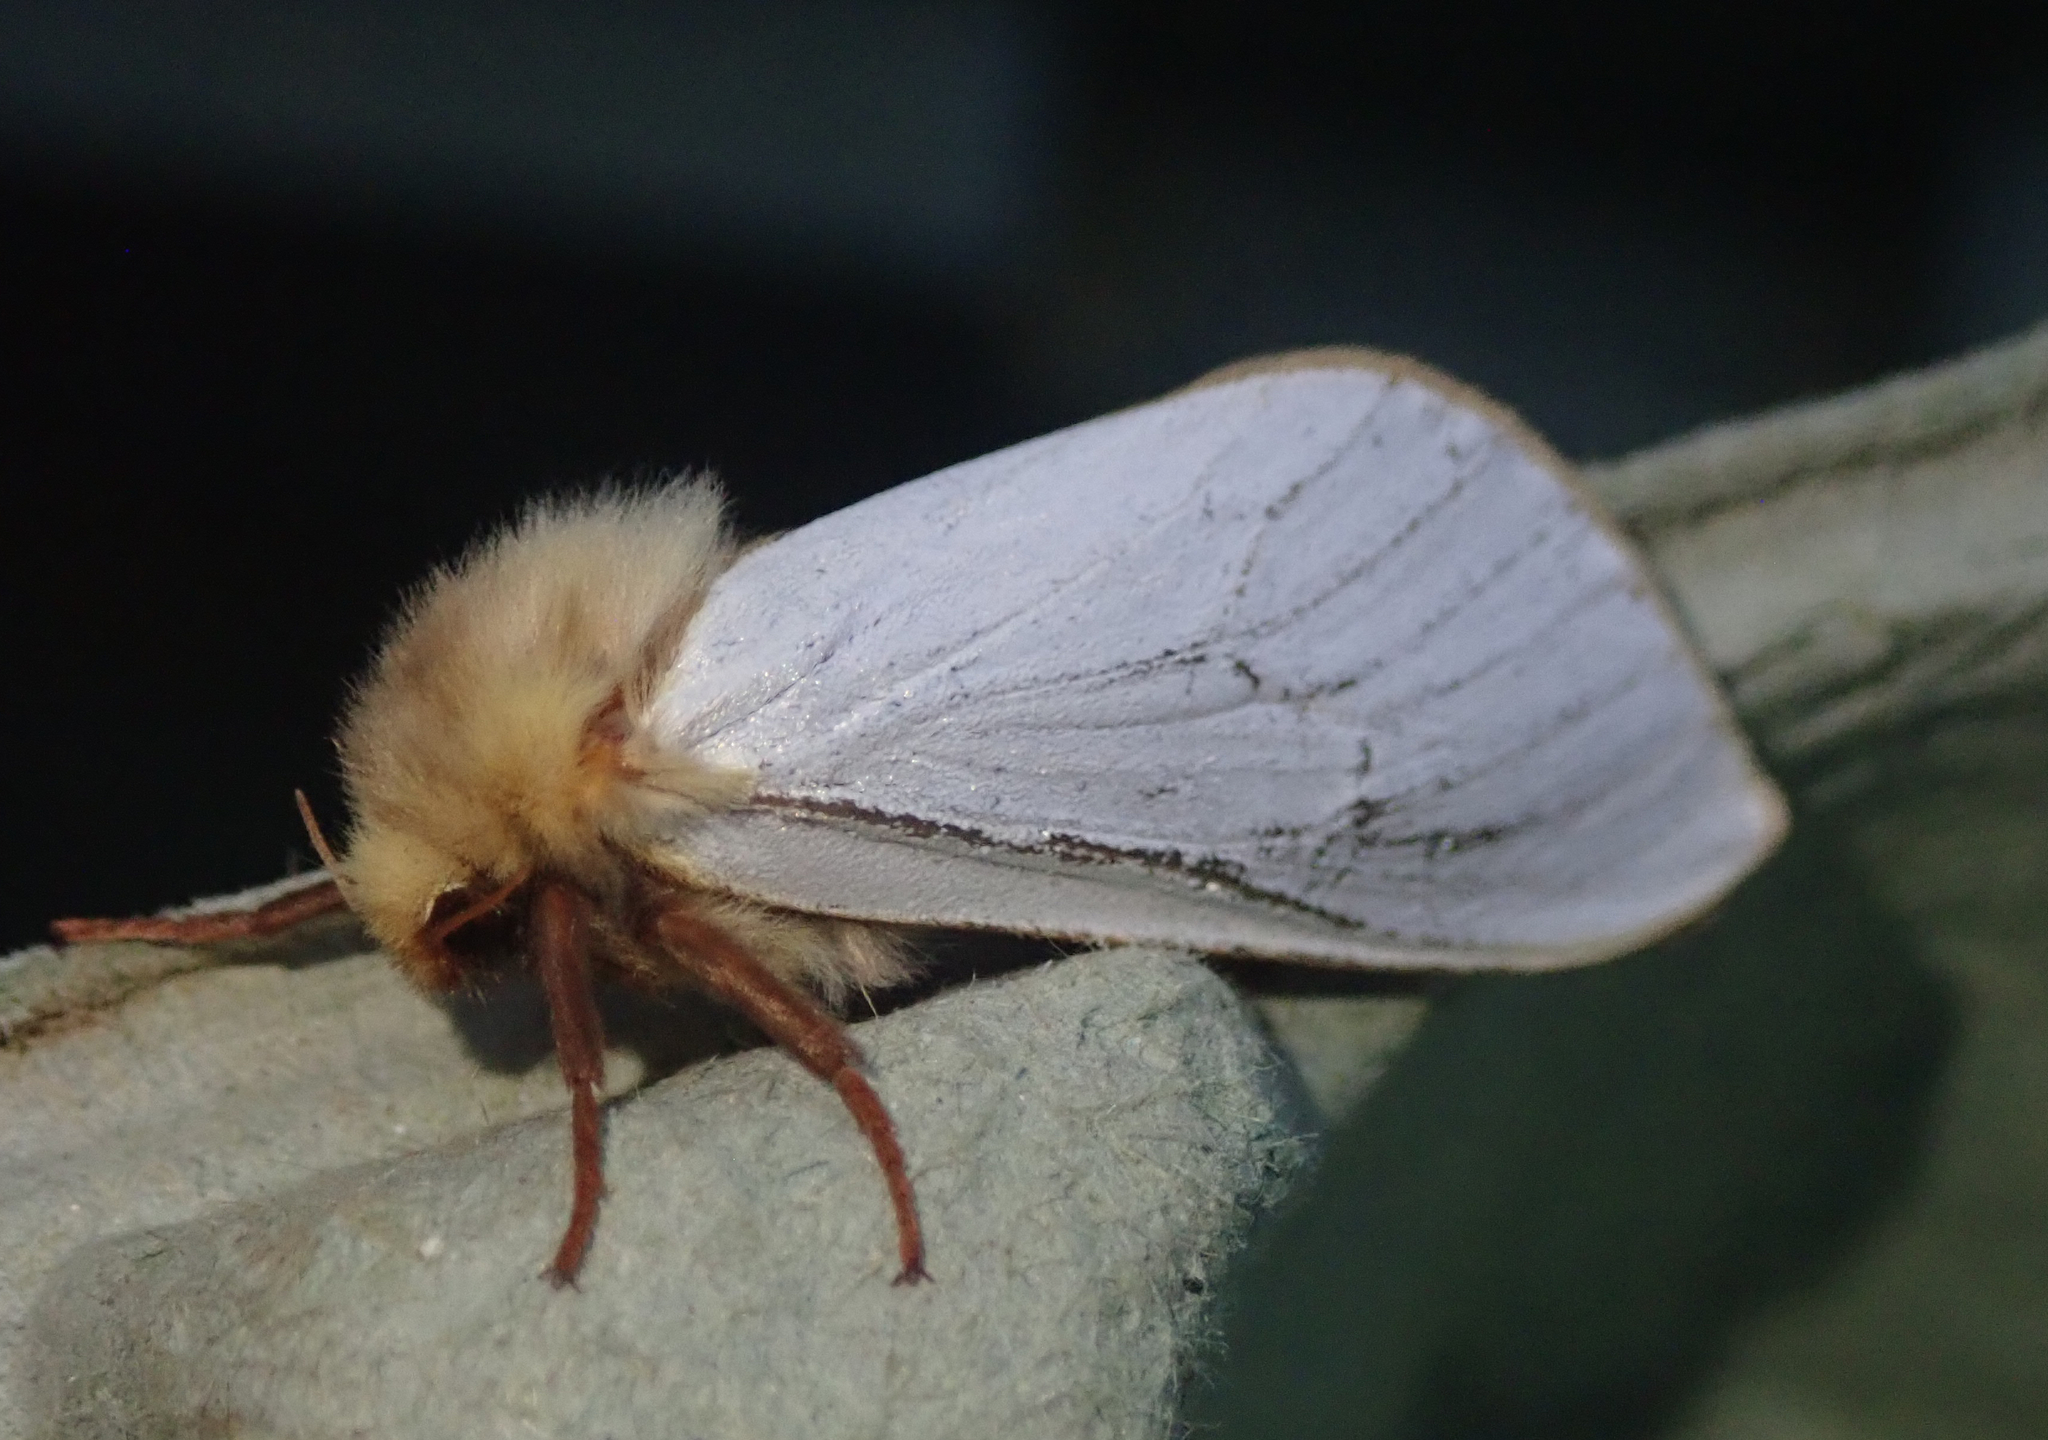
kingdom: Animalia
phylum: Arthropoda
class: Insecta
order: Lepidoptera
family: Hepialidae
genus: Hepialus
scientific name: Hepialus humuli
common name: Ghost moth
